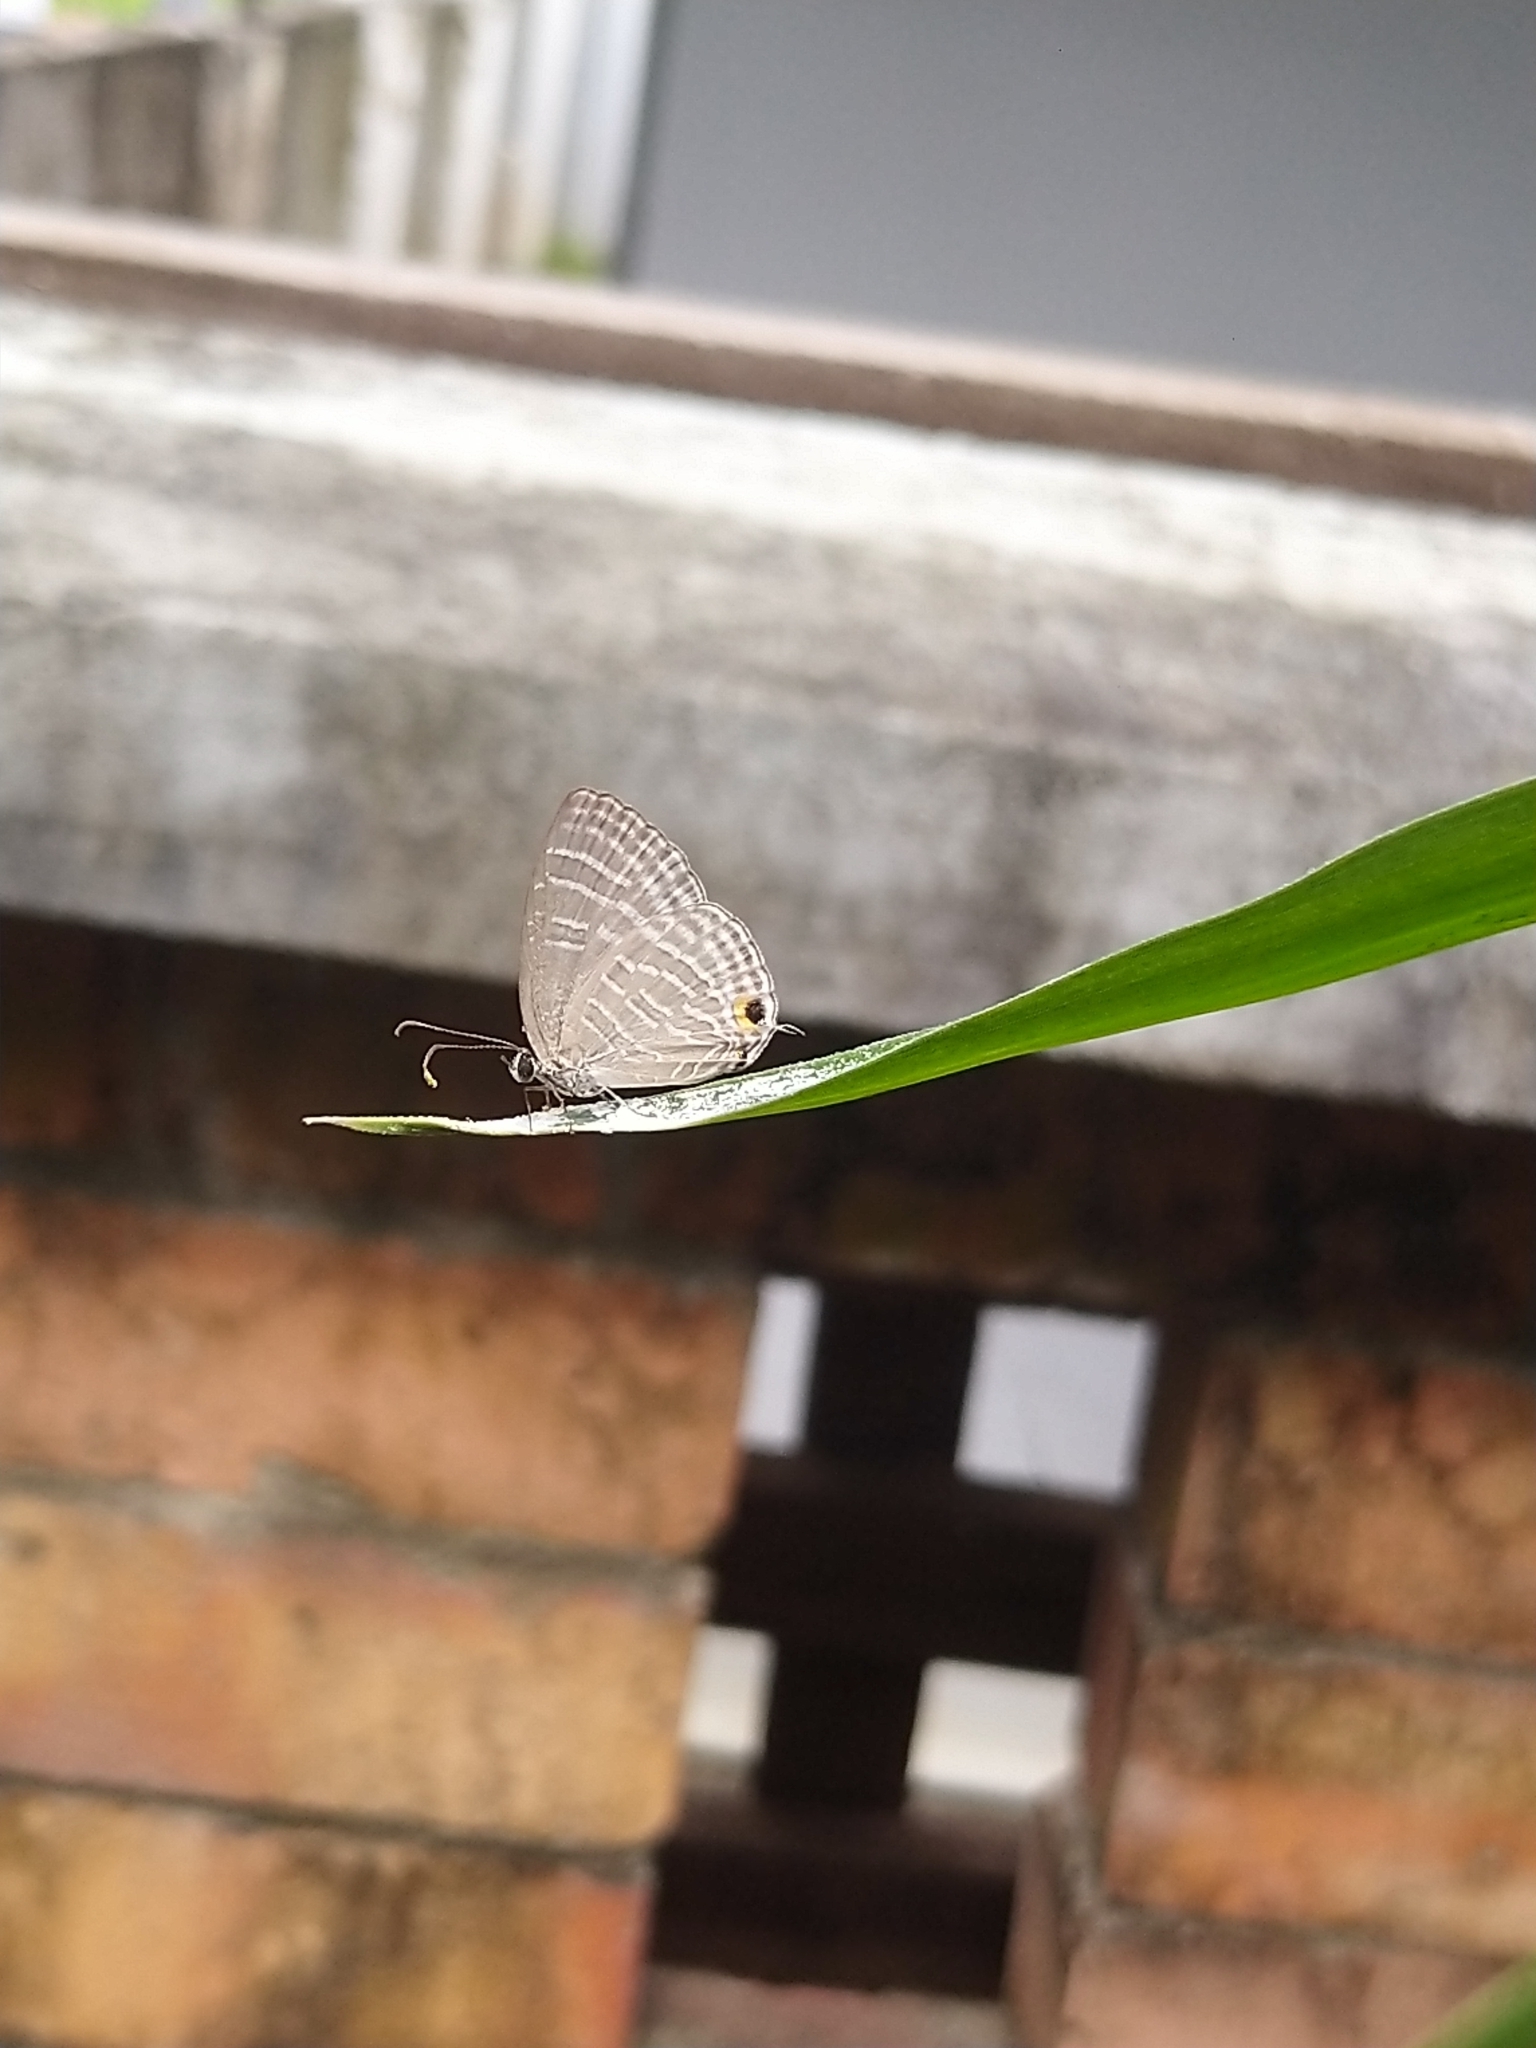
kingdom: Animalia
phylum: Arthropoda
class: Insecta
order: Lepidoptera
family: Lycaenidae
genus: Jamides
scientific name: Jamides celeno
